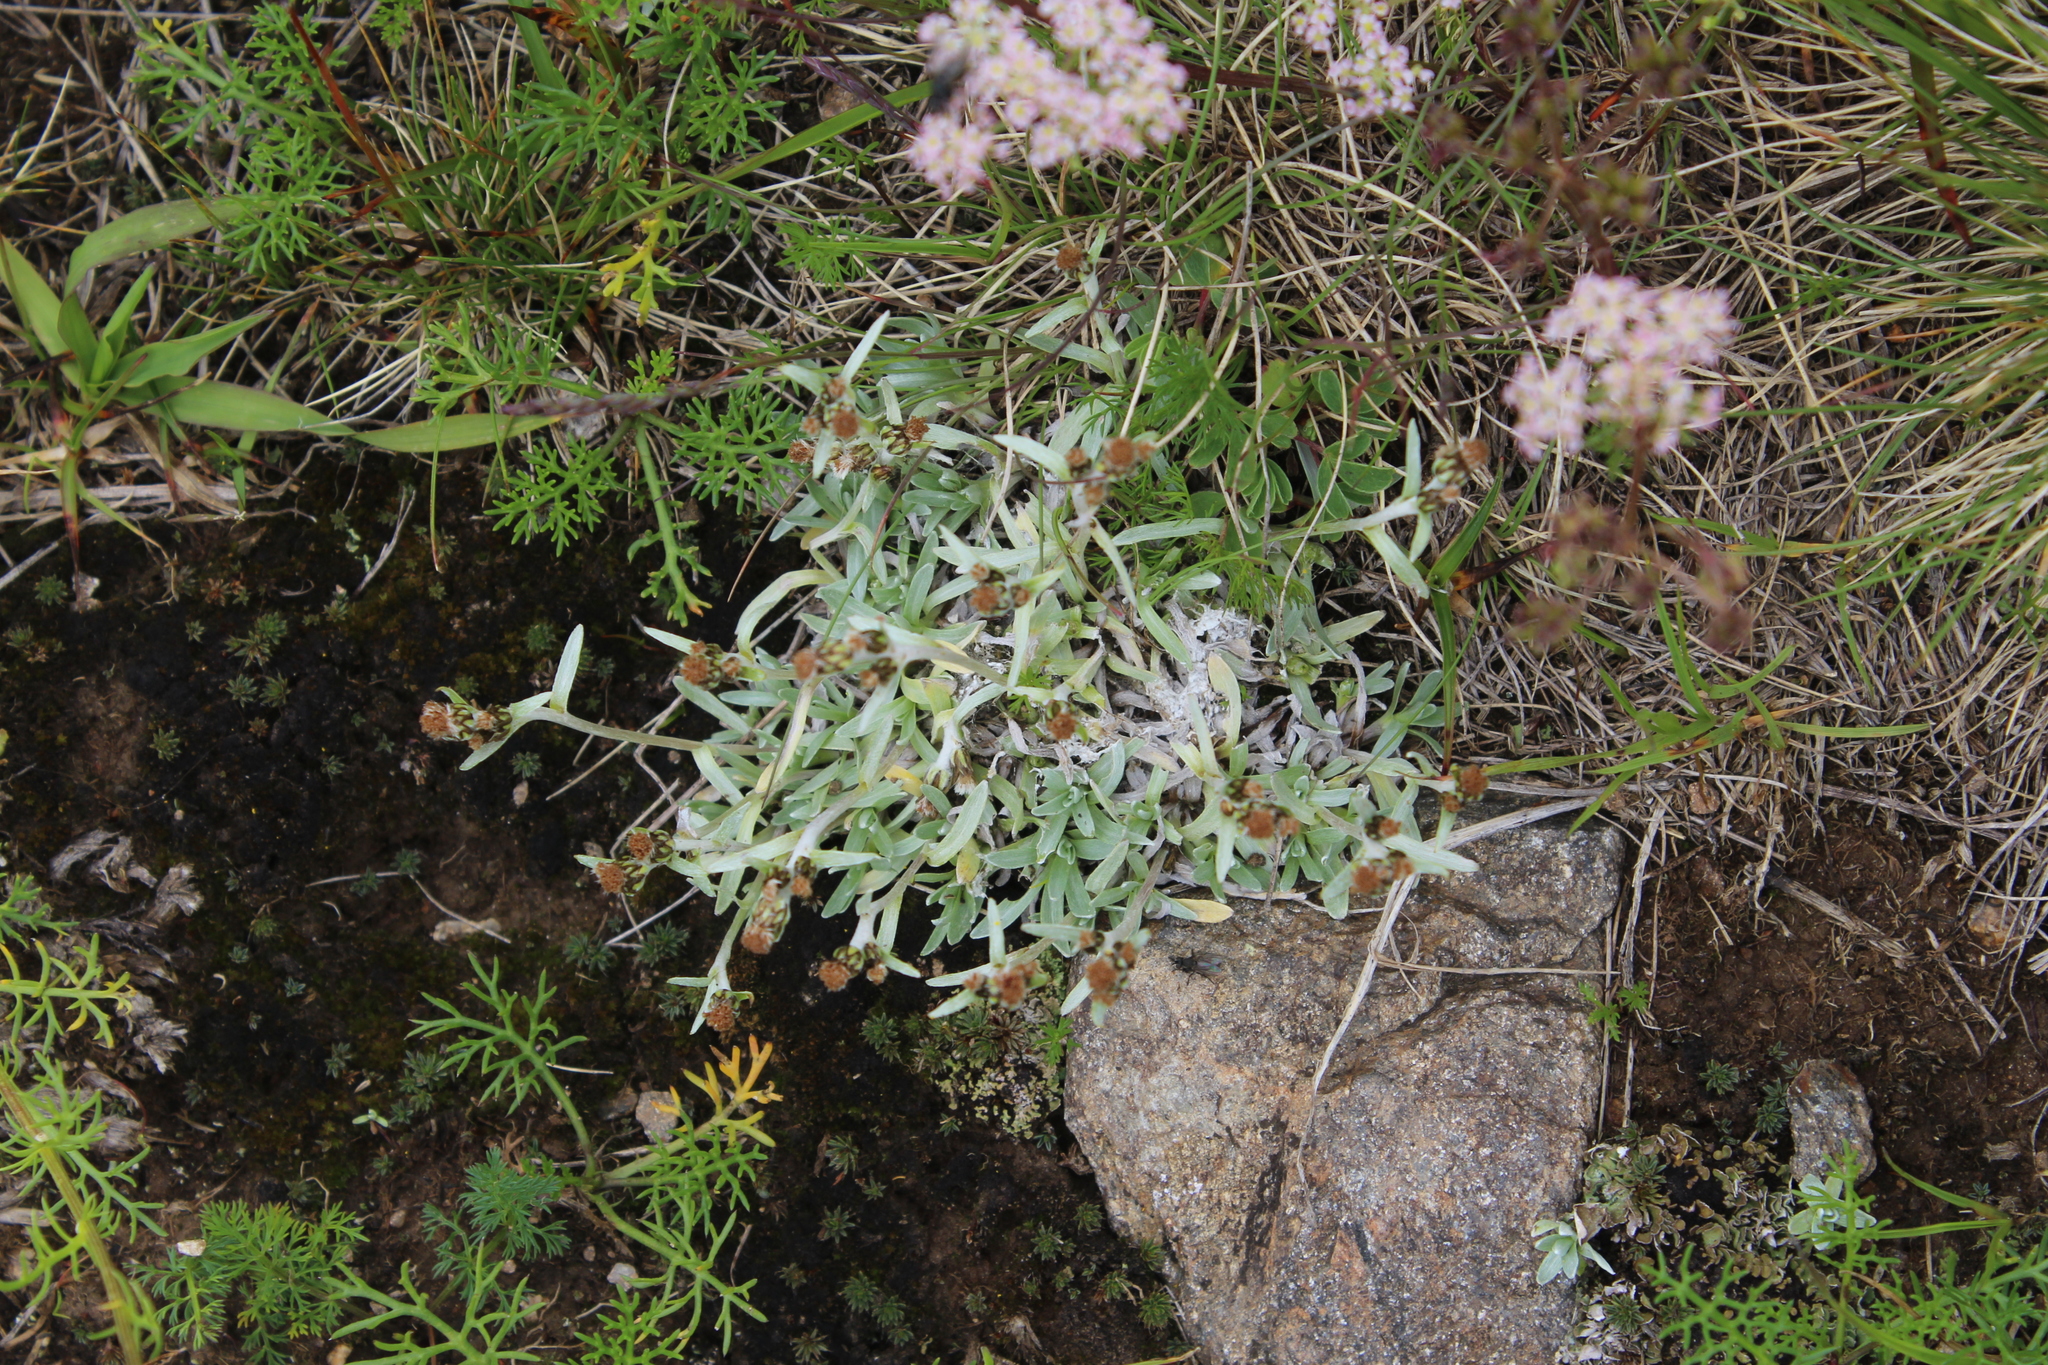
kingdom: Plantae
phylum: Tracheophyta
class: Magnoliopsida
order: Asterales
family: Asteraceae
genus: Omalotheca
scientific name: Omalotheca supina
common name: Alpine arctic-cudweed
